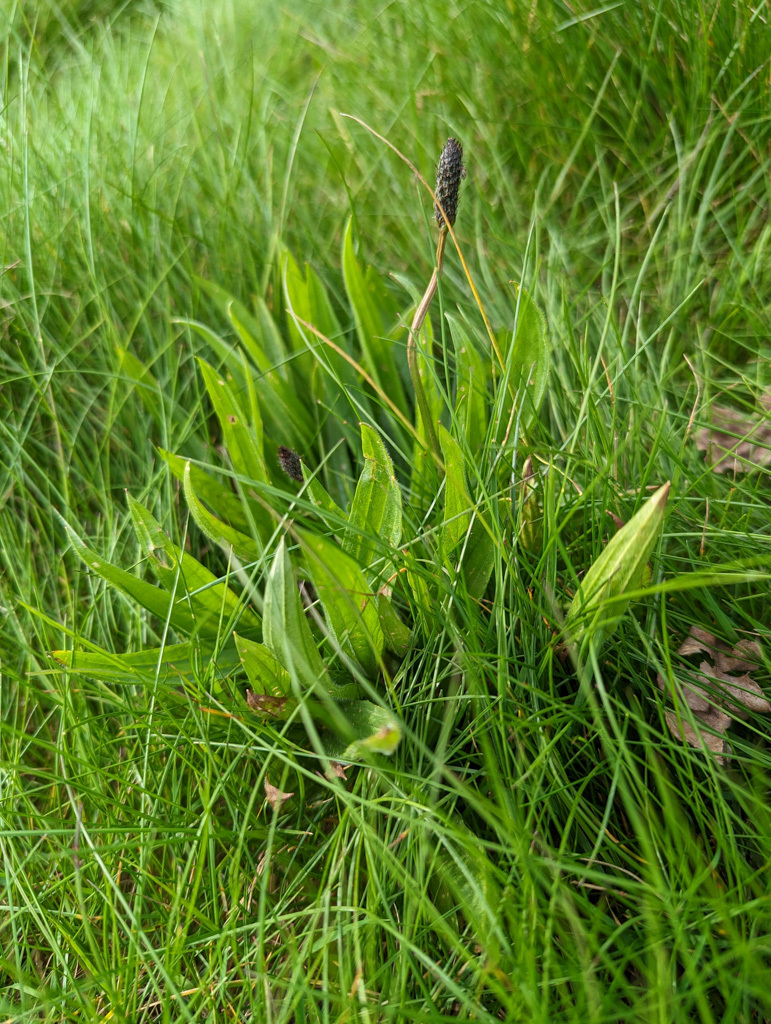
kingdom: Plantae
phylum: Tracheophyta
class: Magnoliopsida
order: Lamiales
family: Plantaginaceae
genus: Plantago
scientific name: Plantago lanceolata
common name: Ribwort plantain
